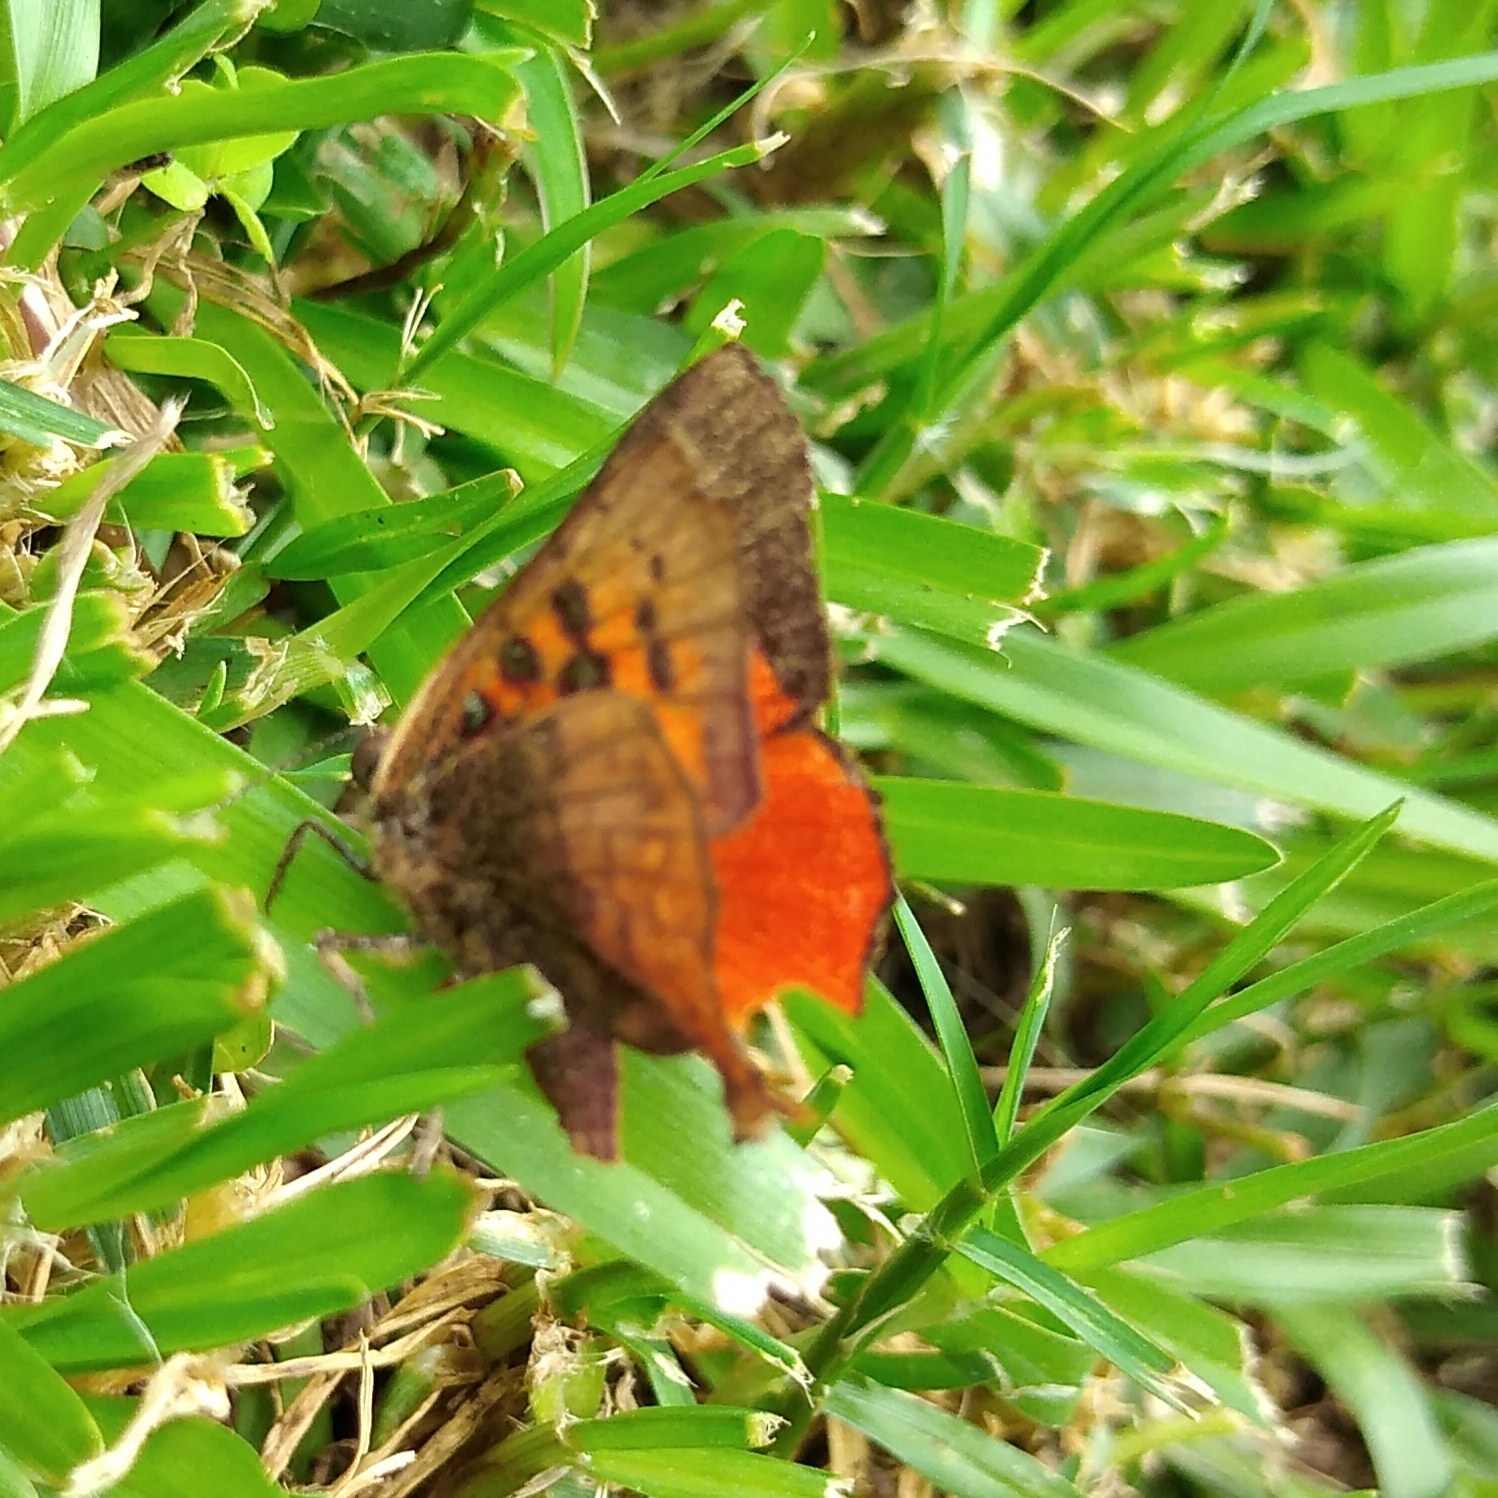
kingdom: Animalia
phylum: Arthropoda
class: Insecta
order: Lepidoptera
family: Lycaenidae
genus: Axiocerses
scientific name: Axiocerses perion
